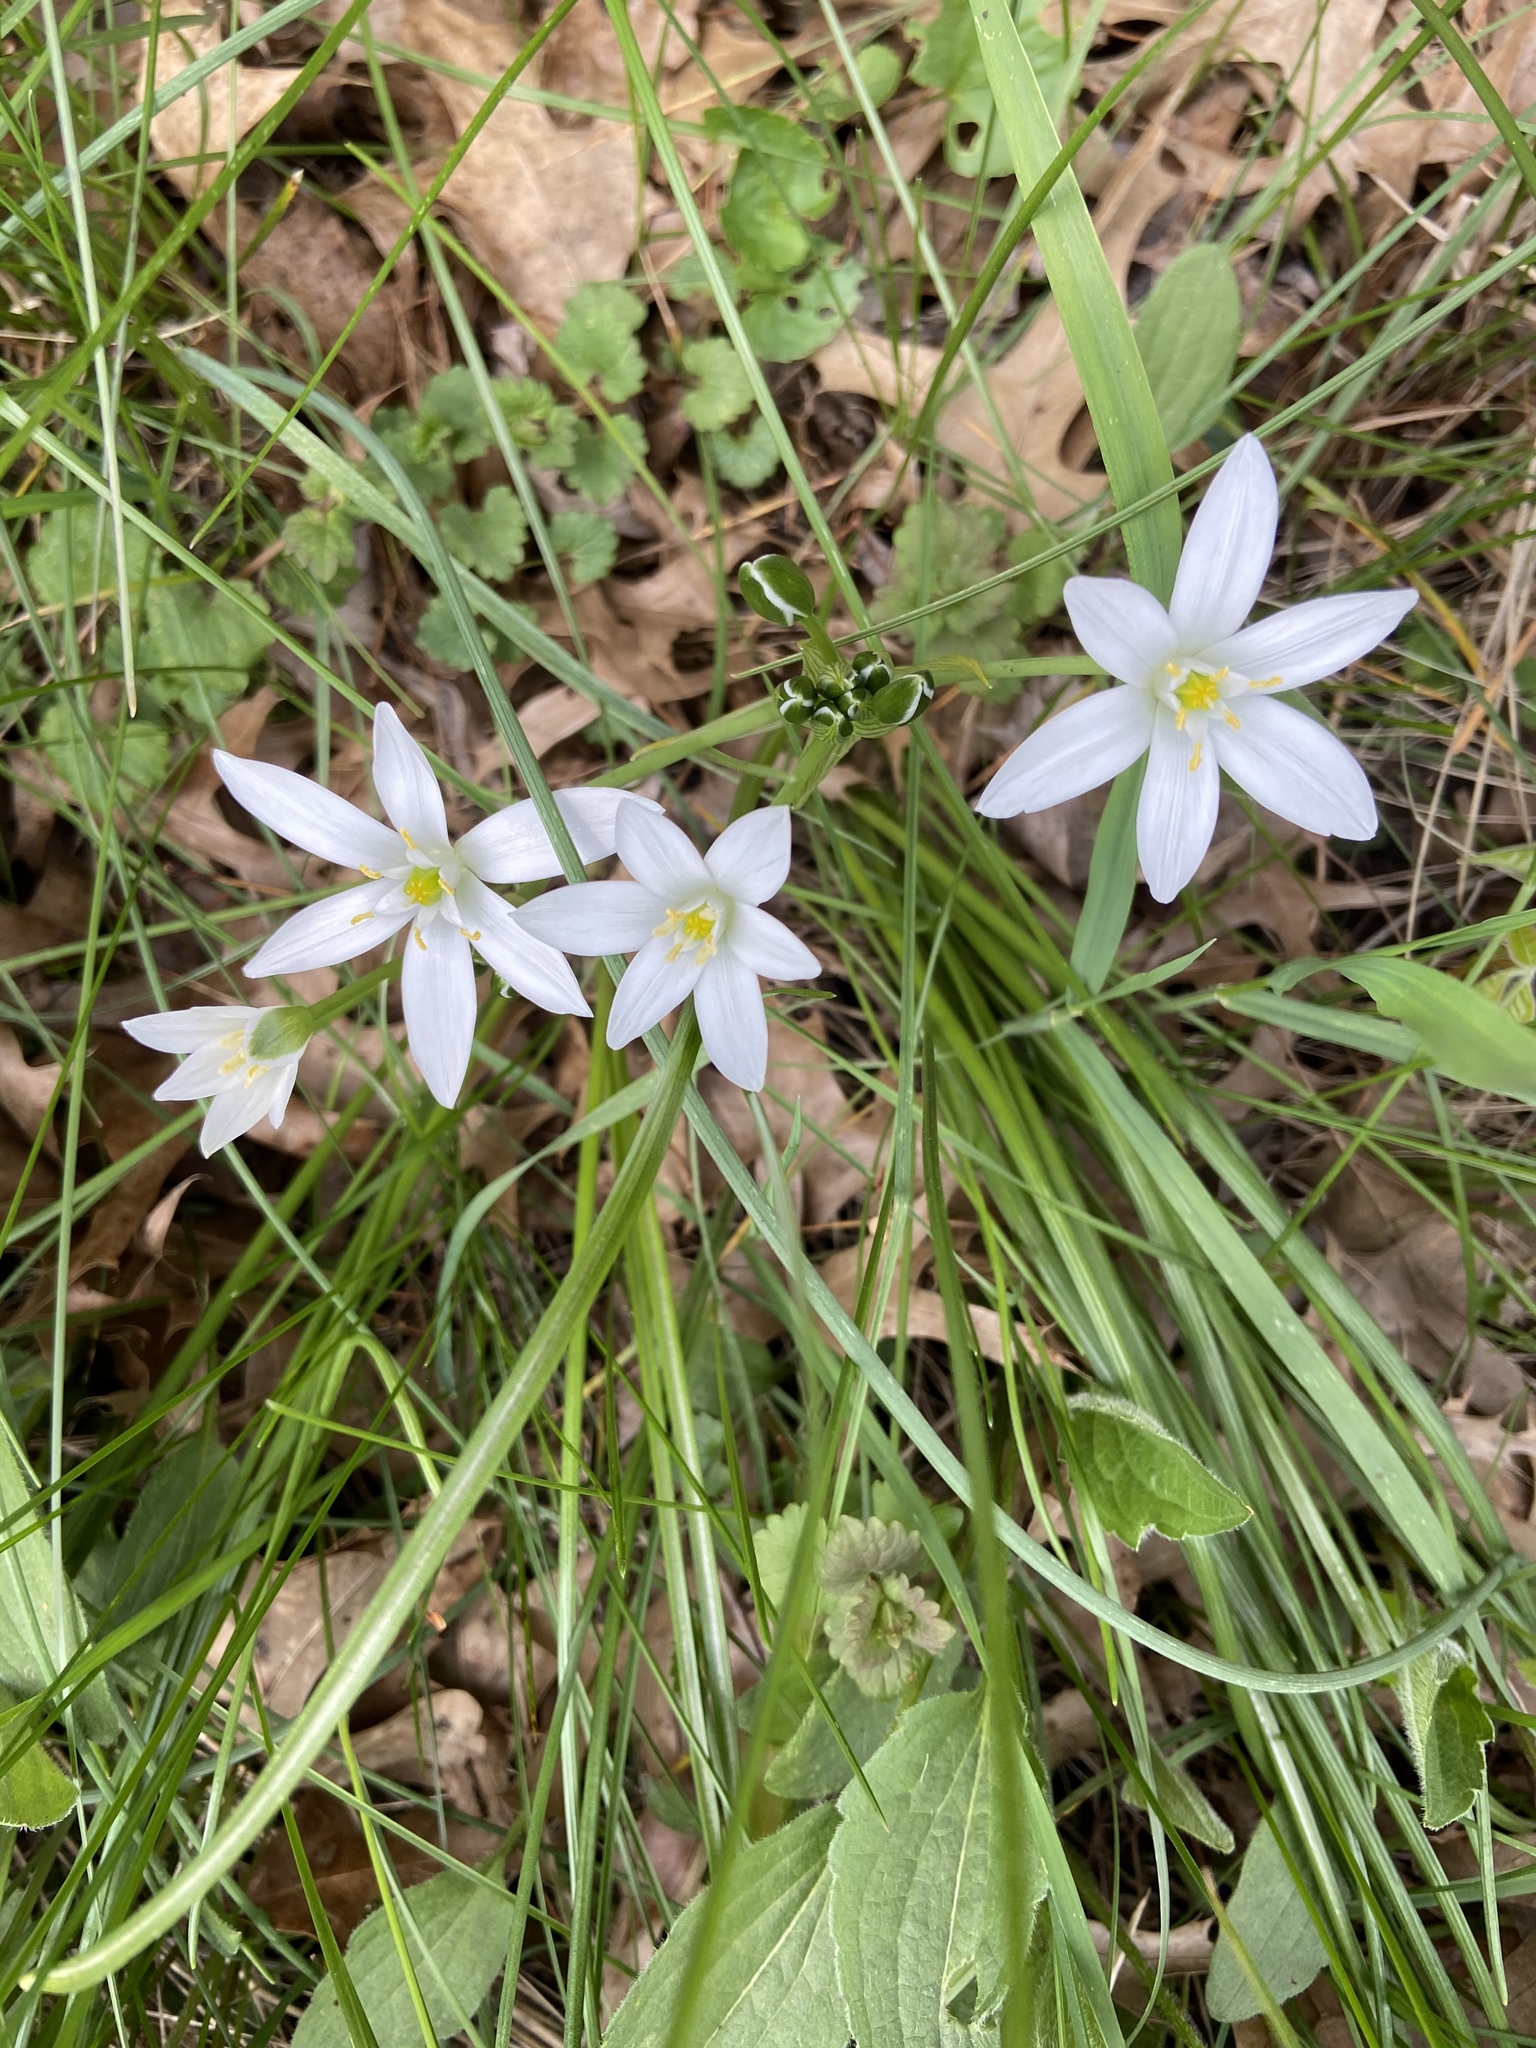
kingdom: Plantae
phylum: Tracheophyta
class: Liliopsida
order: Asparagales
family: Asparagaceae
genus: Ornithogalum
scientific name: Ornithogalum umbellatum
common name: Garden star-of-bethlehem
